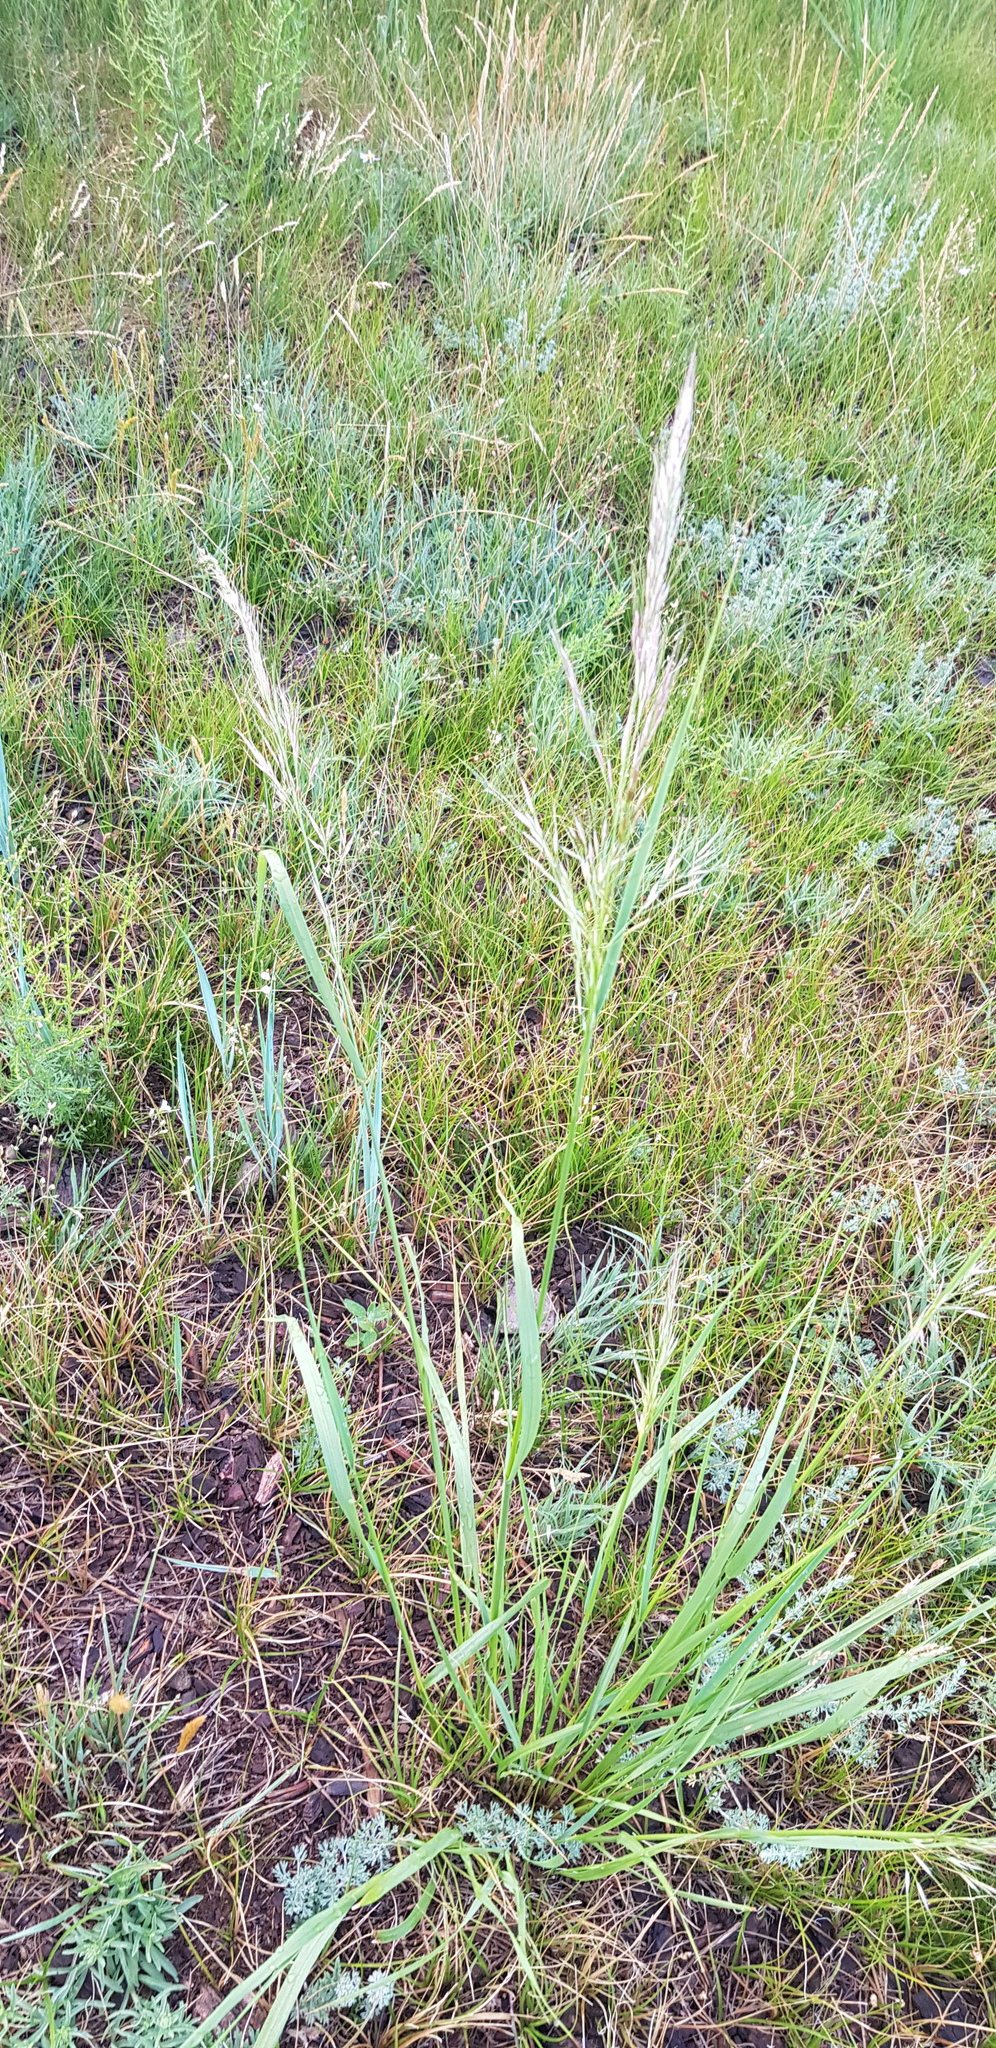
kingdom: Plantae
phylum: Tracheophyta
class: Liliopsida
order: Poales
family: Poaceae
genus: Achnatherum
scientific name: Achnatherum sibiricum
